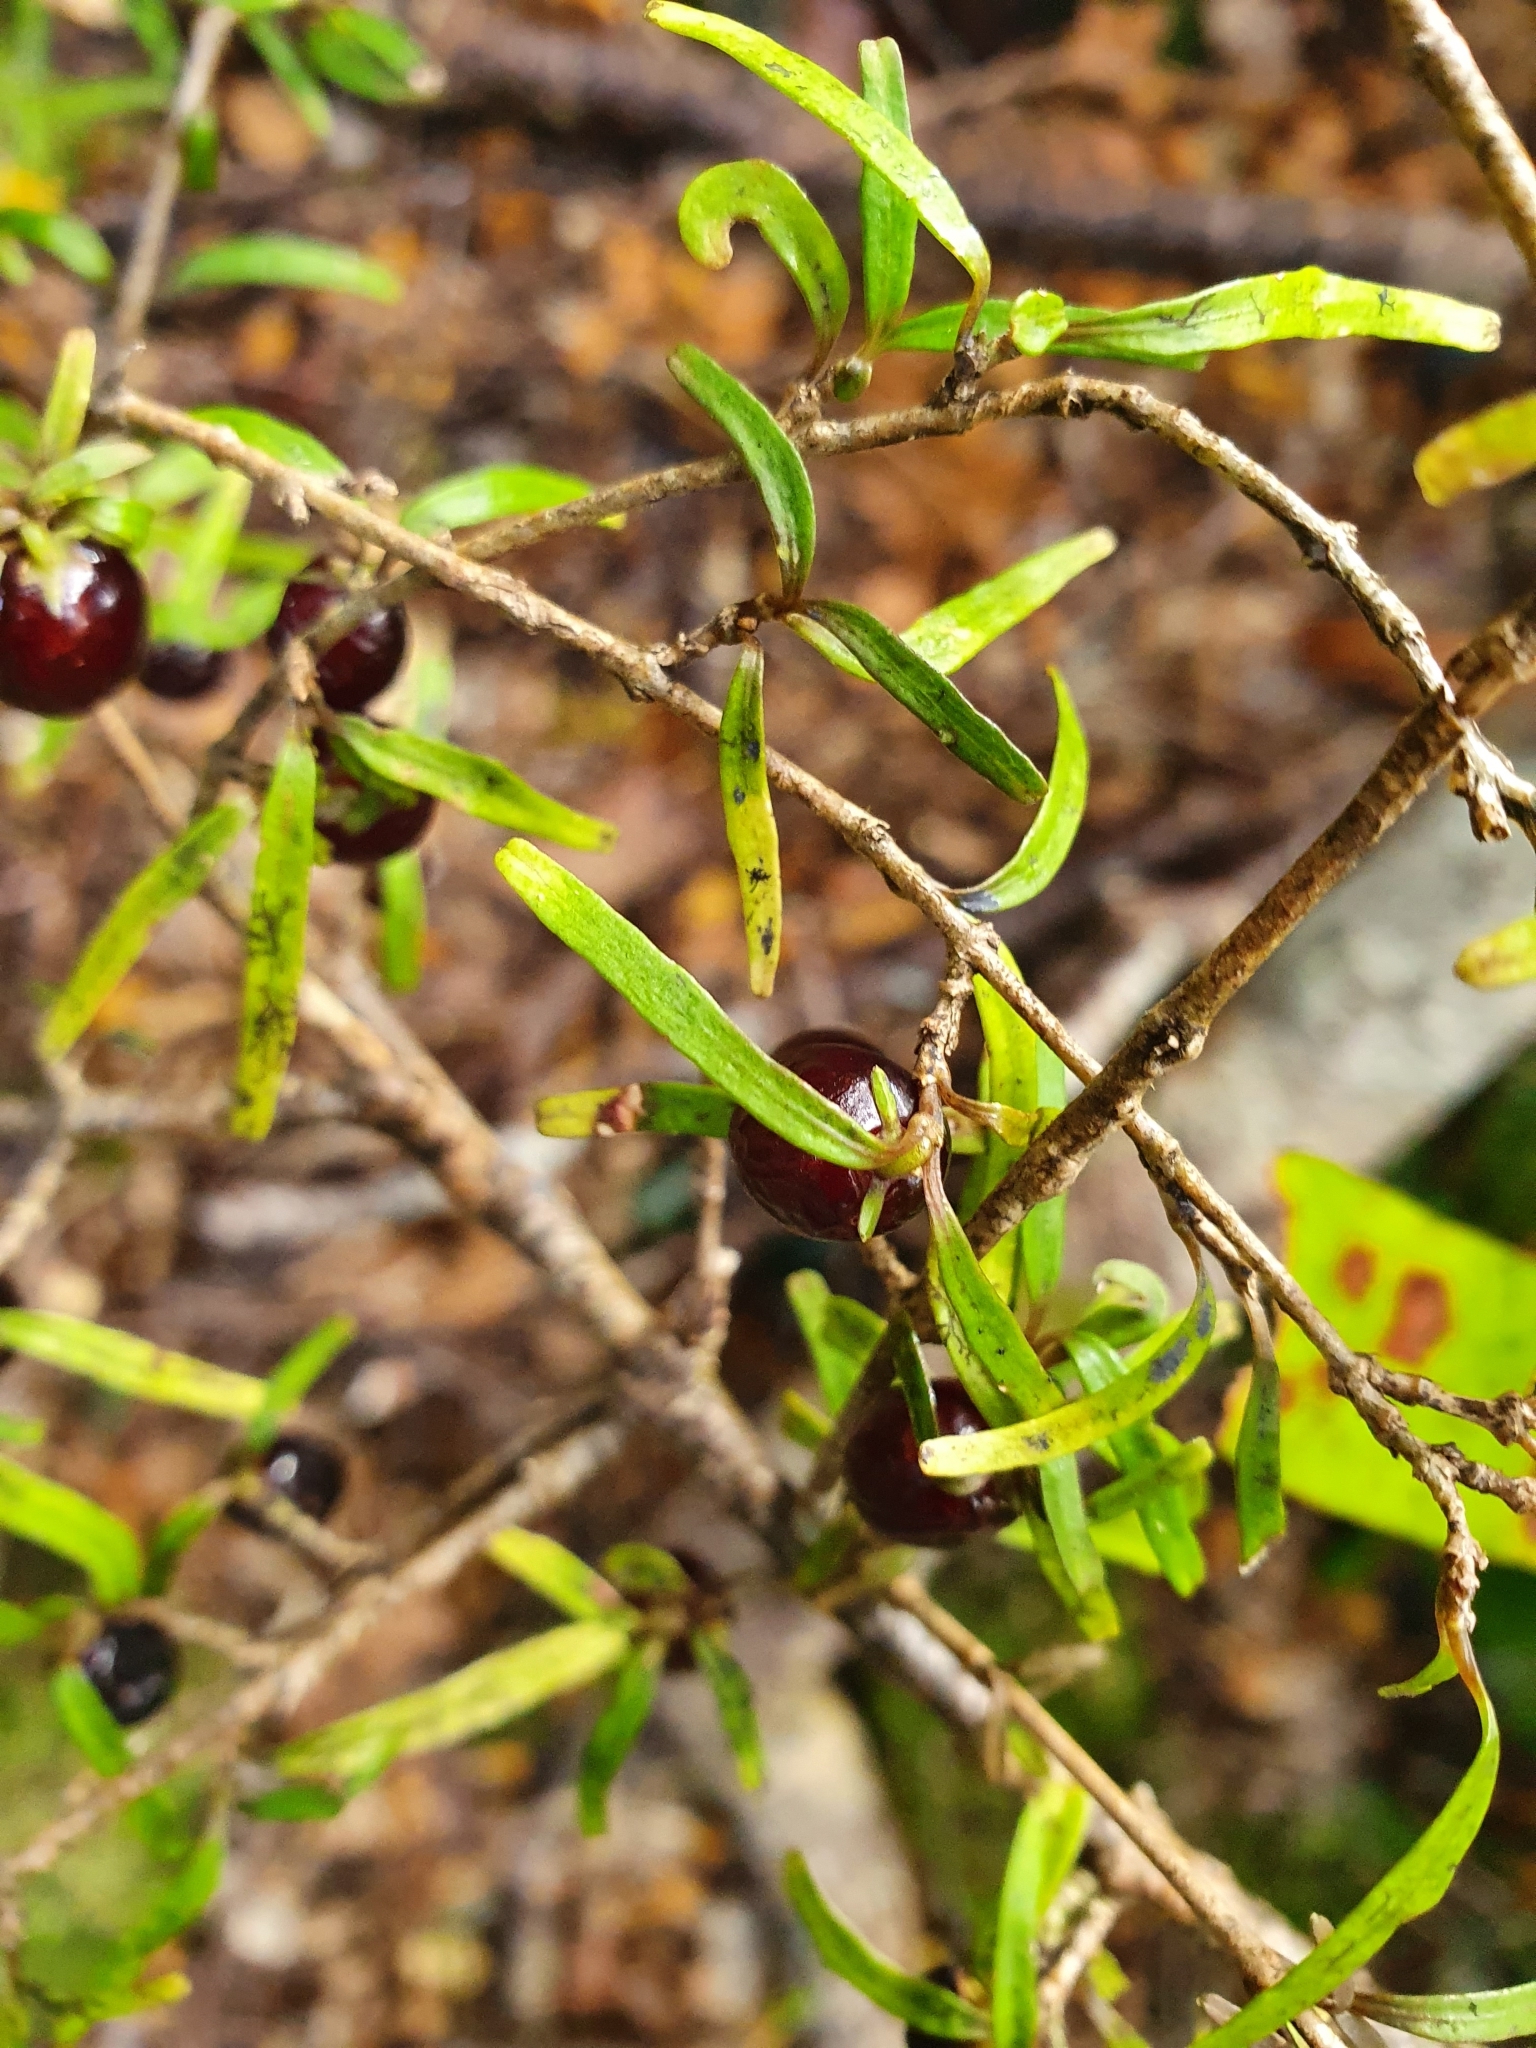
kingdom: Plantae
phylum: Tracheophyta
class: Magnoliopsida
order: Gentianales
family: Rubiaceae
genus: Coprosma
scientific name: Coprosma linariifolia
